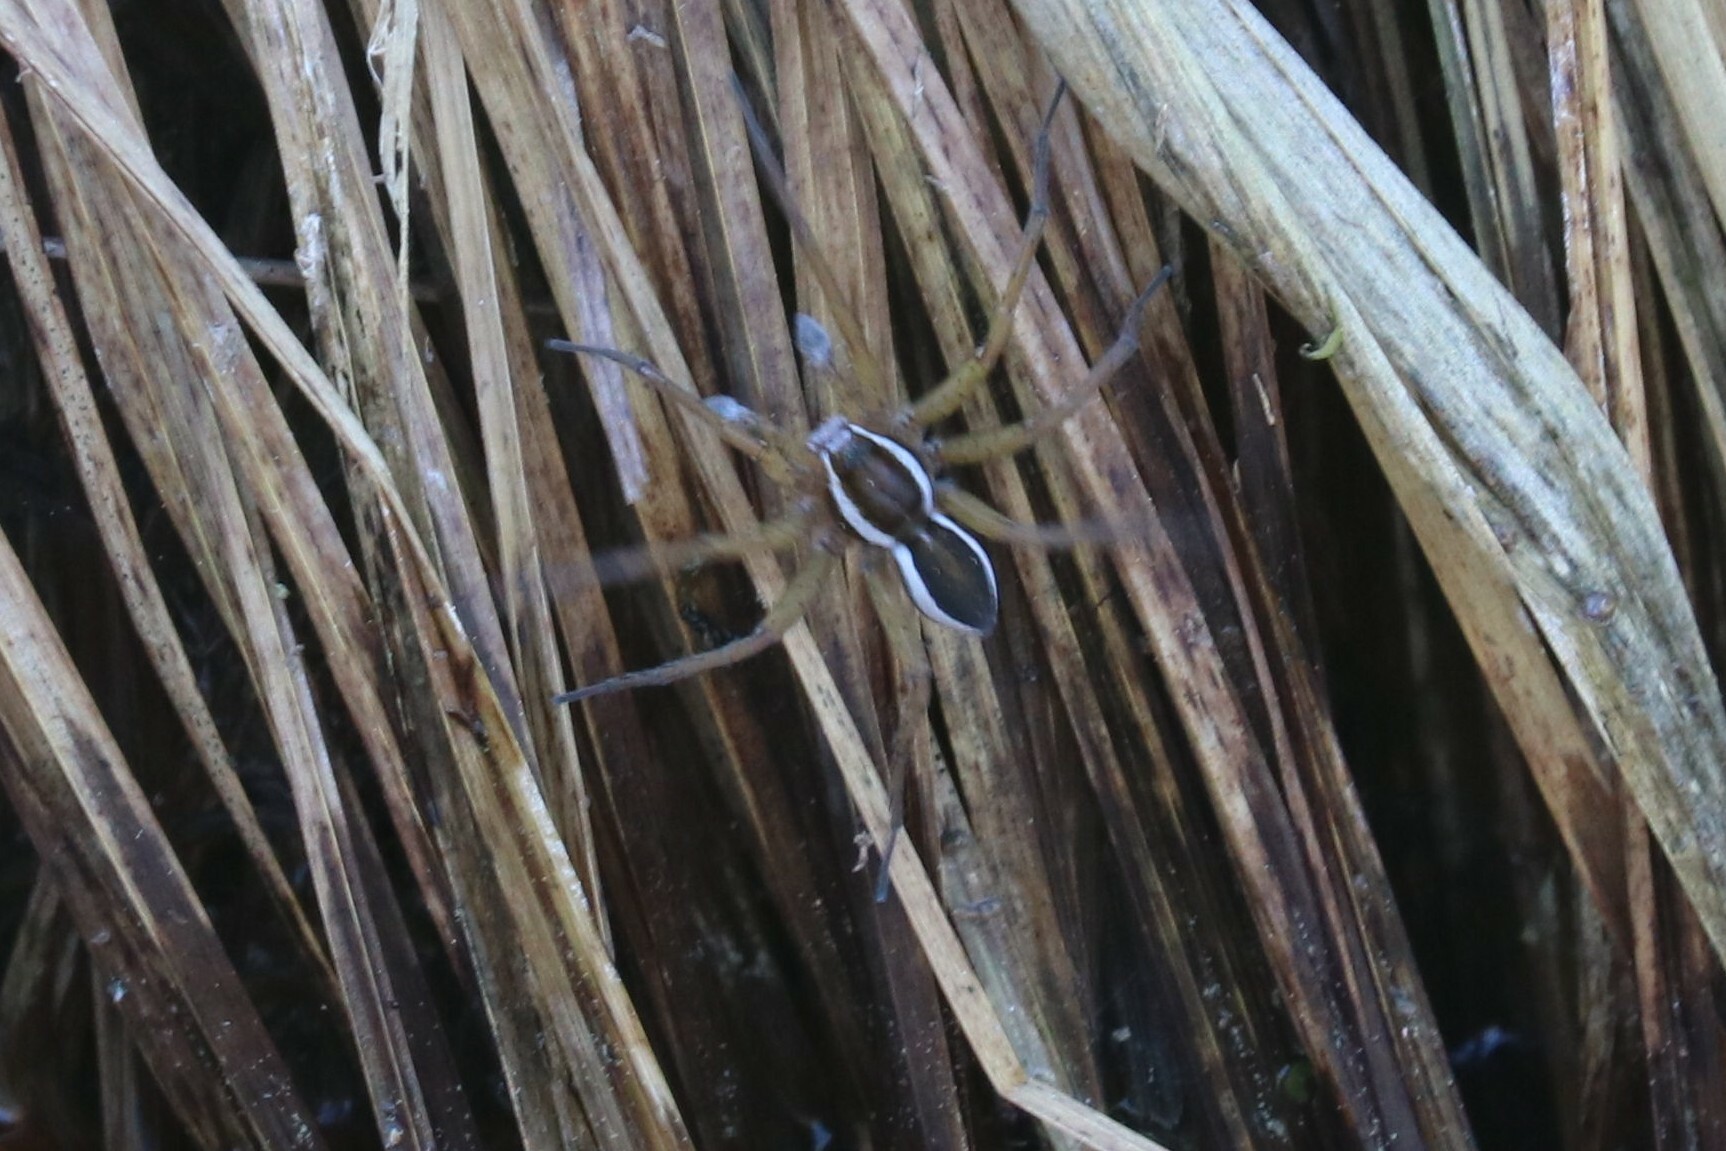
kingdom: Animalia
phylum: Arthropoda
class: Arachnida
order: Araneae
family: Pisauridae
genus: Dolomedes
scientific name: Dolomedes
